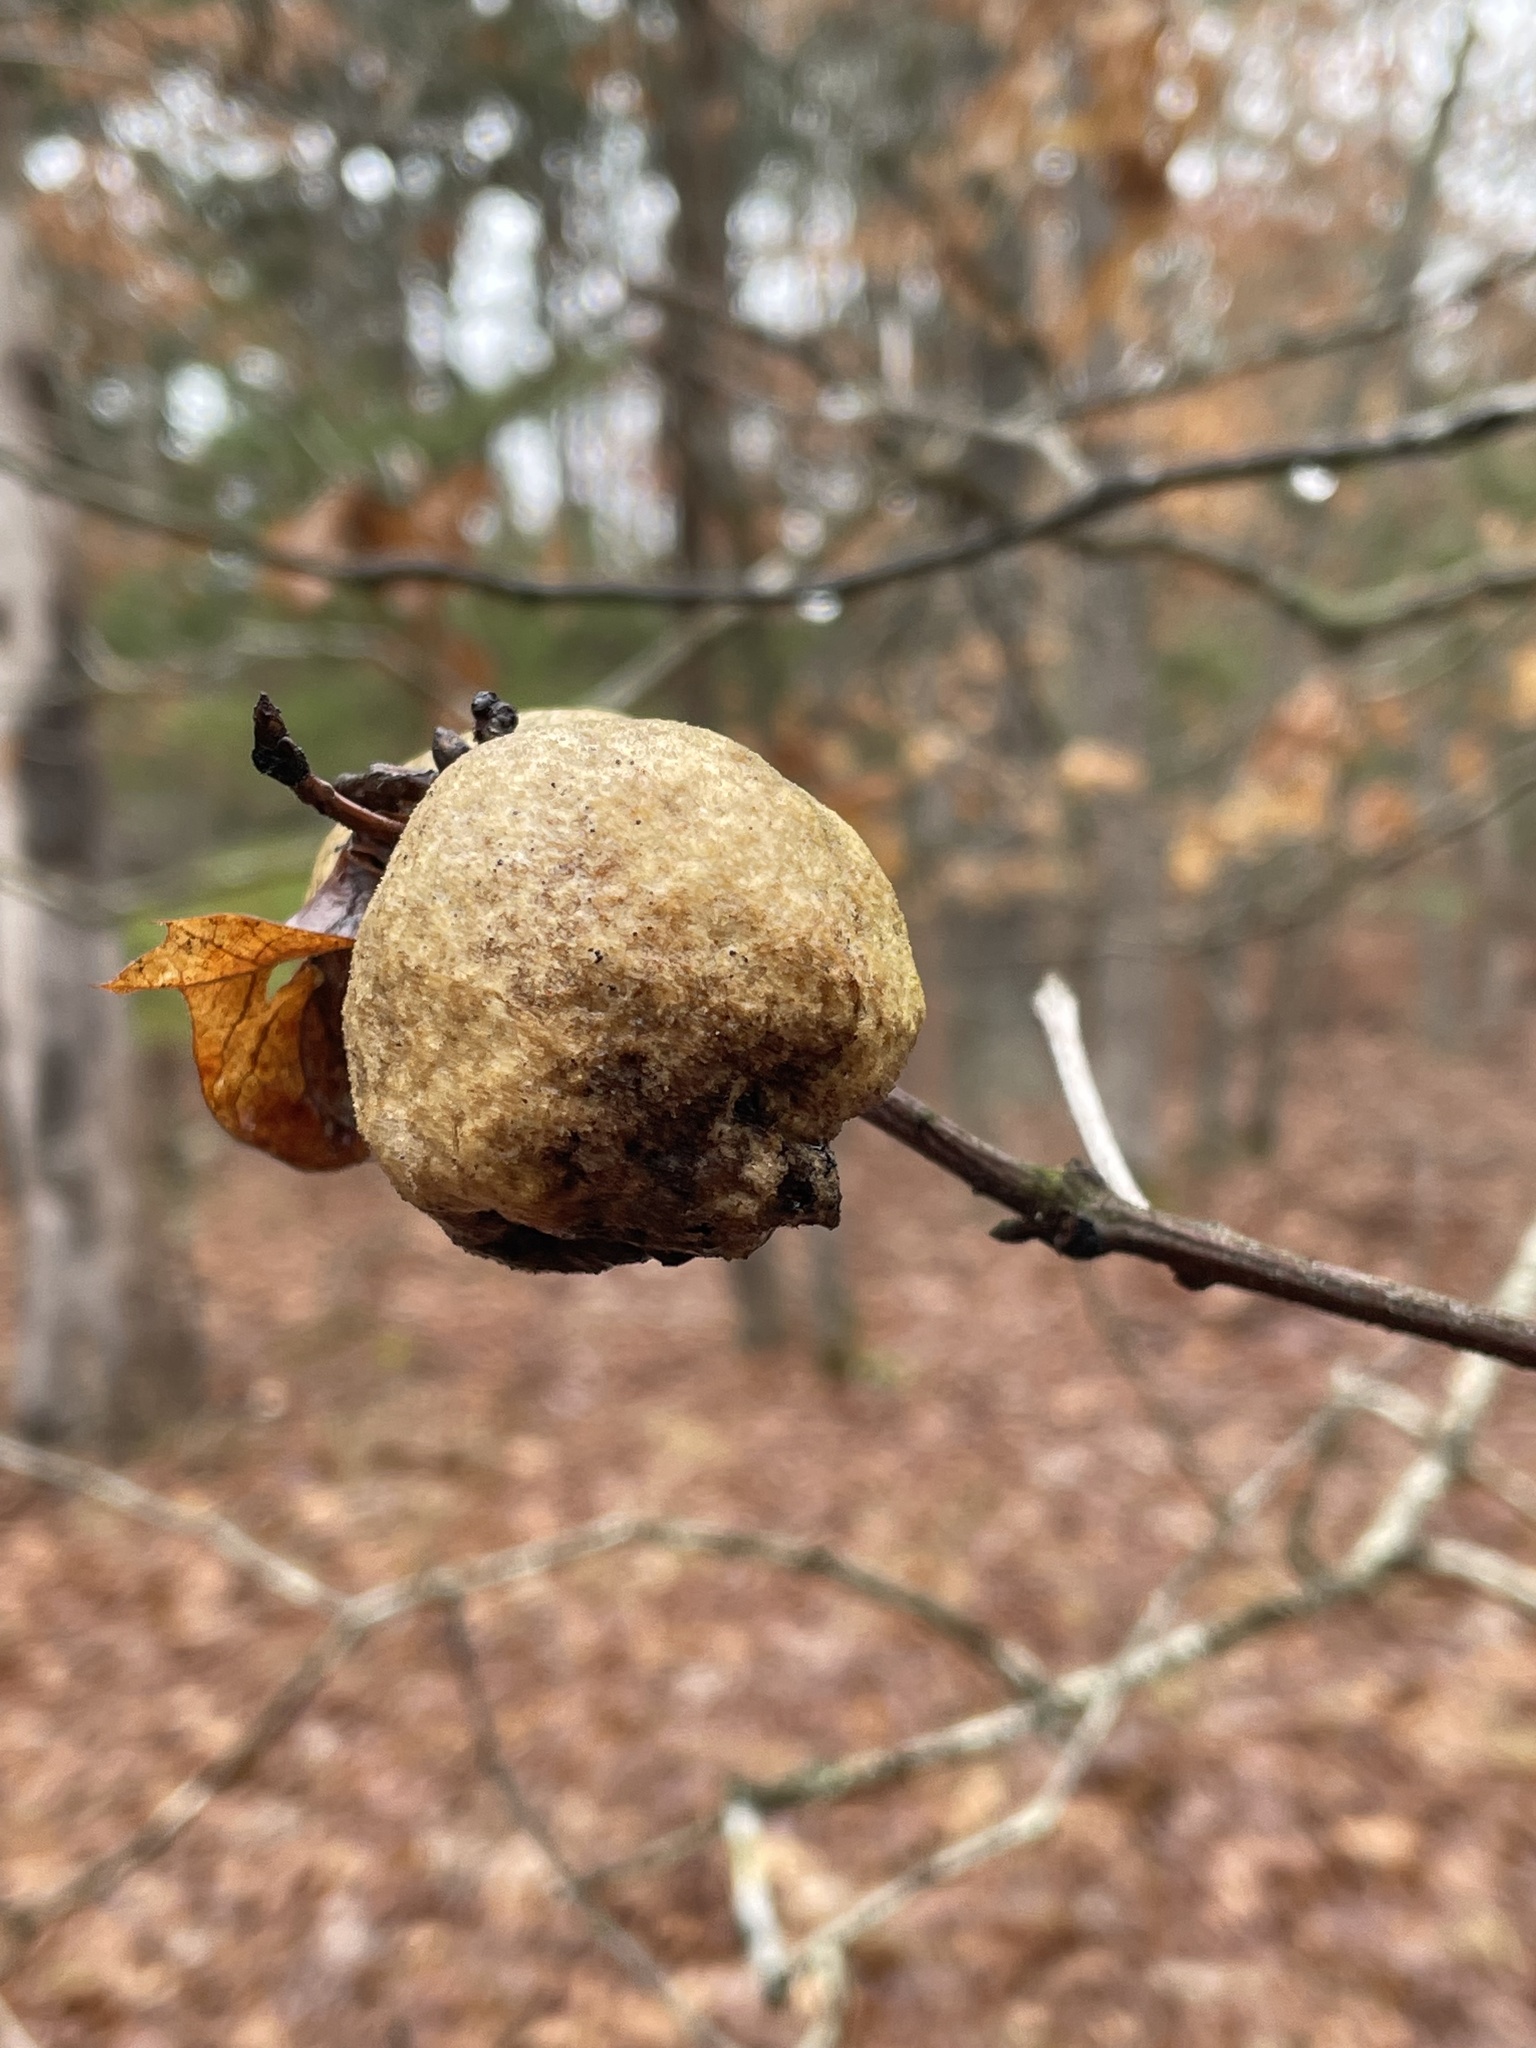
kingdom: Animalia
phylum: Arthropoda
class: Insecta
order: Hymenoptera
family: Cynipidae
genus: Amphibolips
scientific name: Amphibolips
